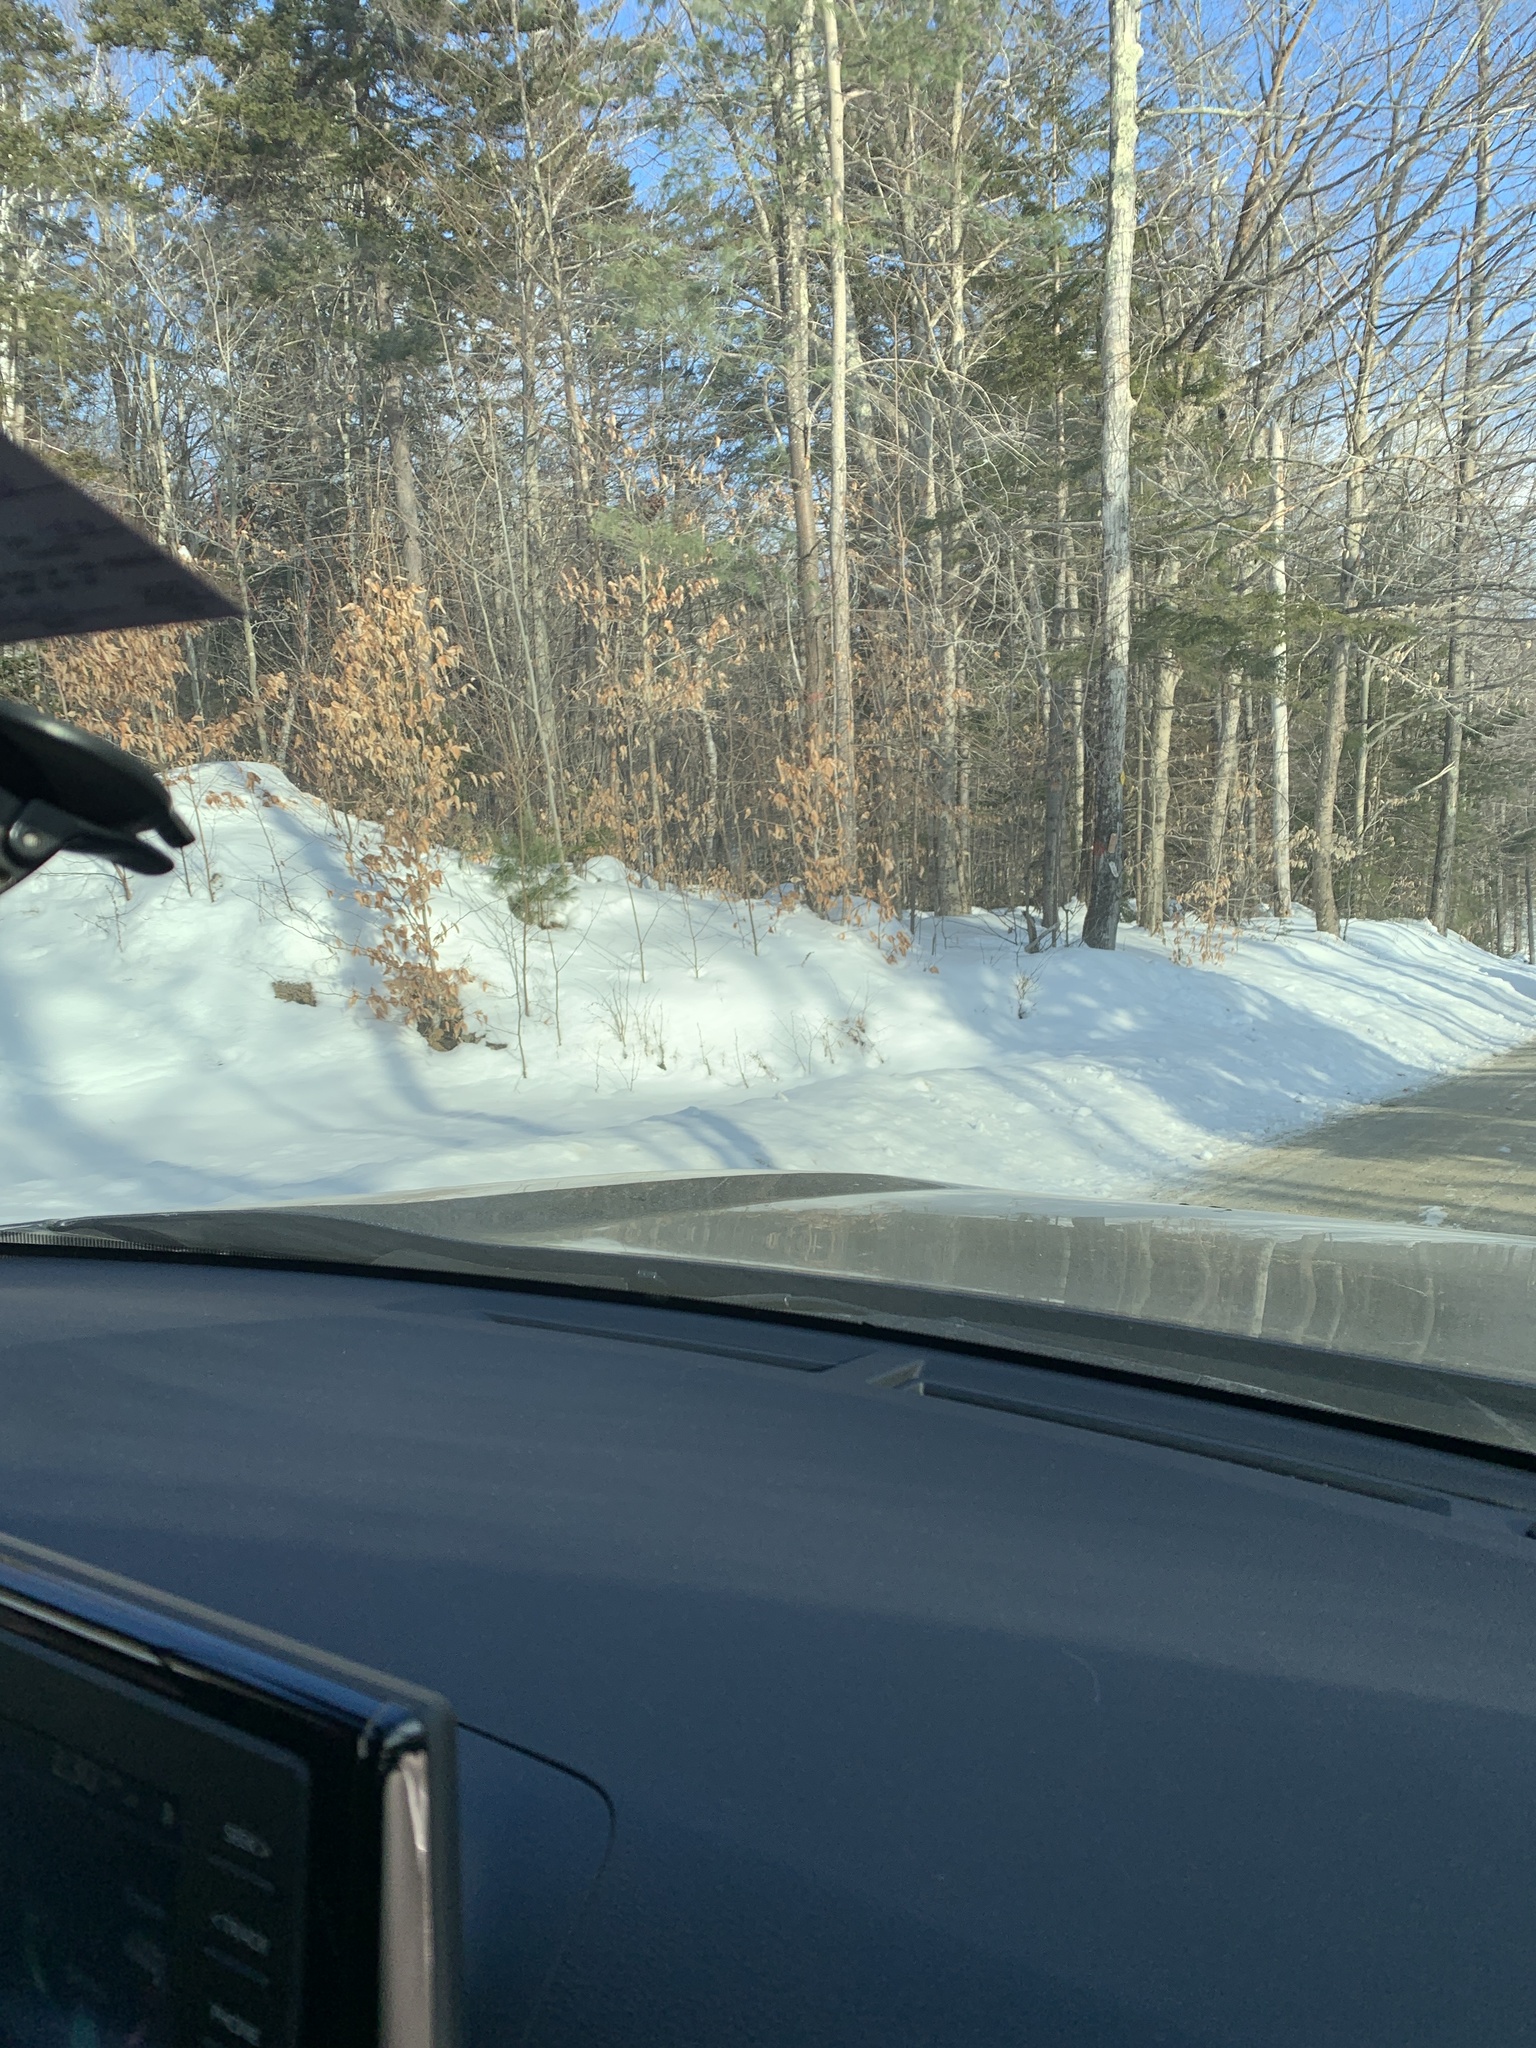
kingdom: Plantae
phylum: Tracheophyta
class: Magnoliopsida
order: Fagales
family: Fagaceae
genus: Fagus
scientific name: Fagus grandifolia
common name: American beech
